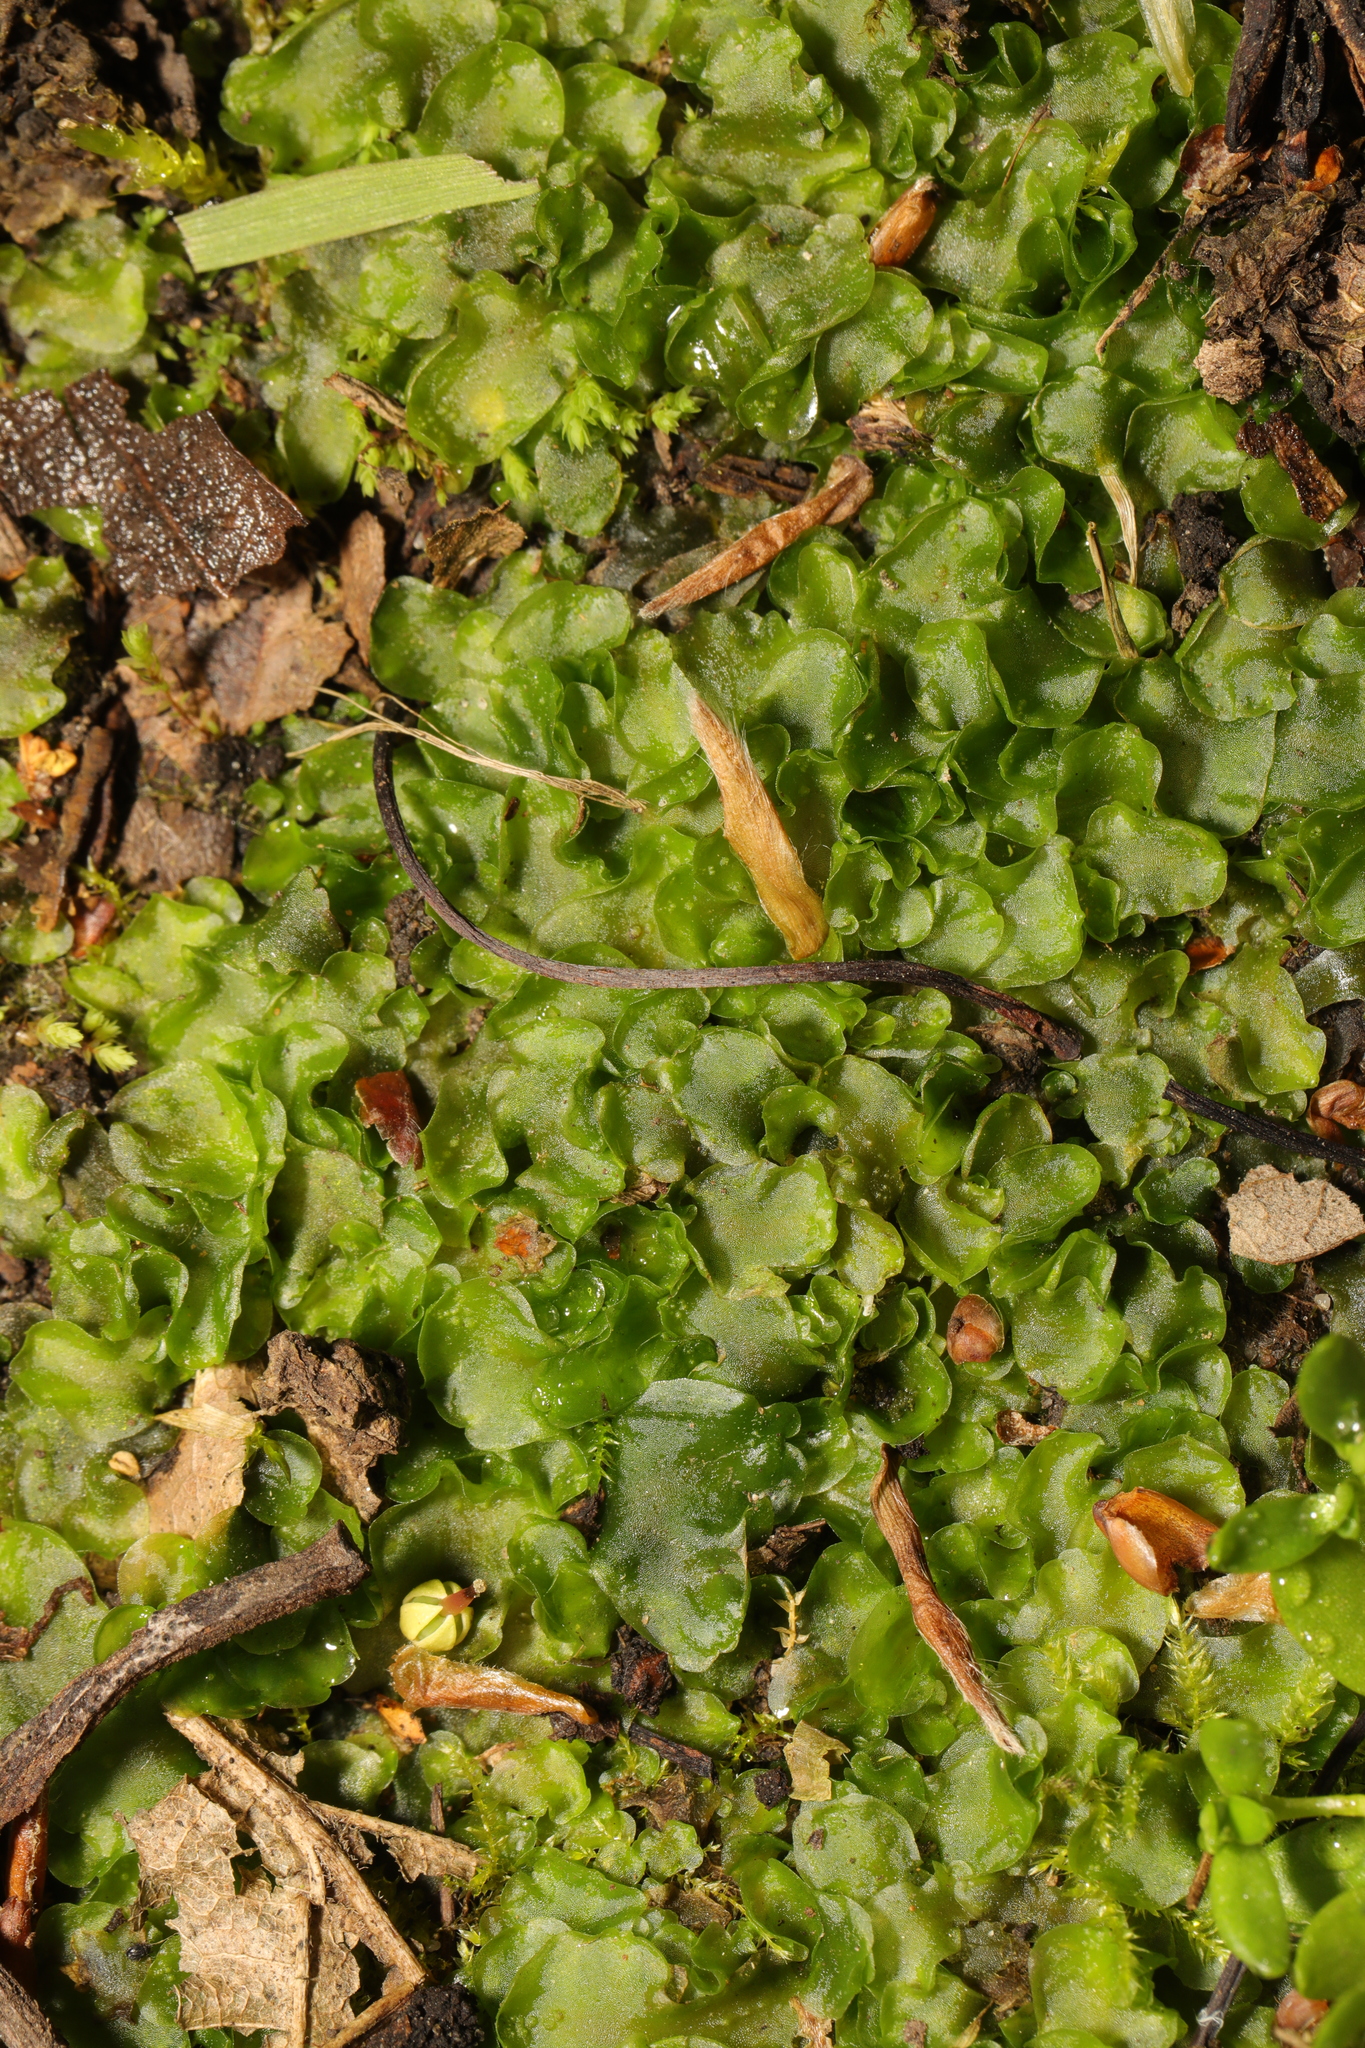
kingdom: Plantae
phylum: Marchantiophyta
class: Jungermanniopsida
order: Pelliales
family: Pelliaceae
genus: Pellia
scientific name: Pellia epiphylla
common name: Common pellia
